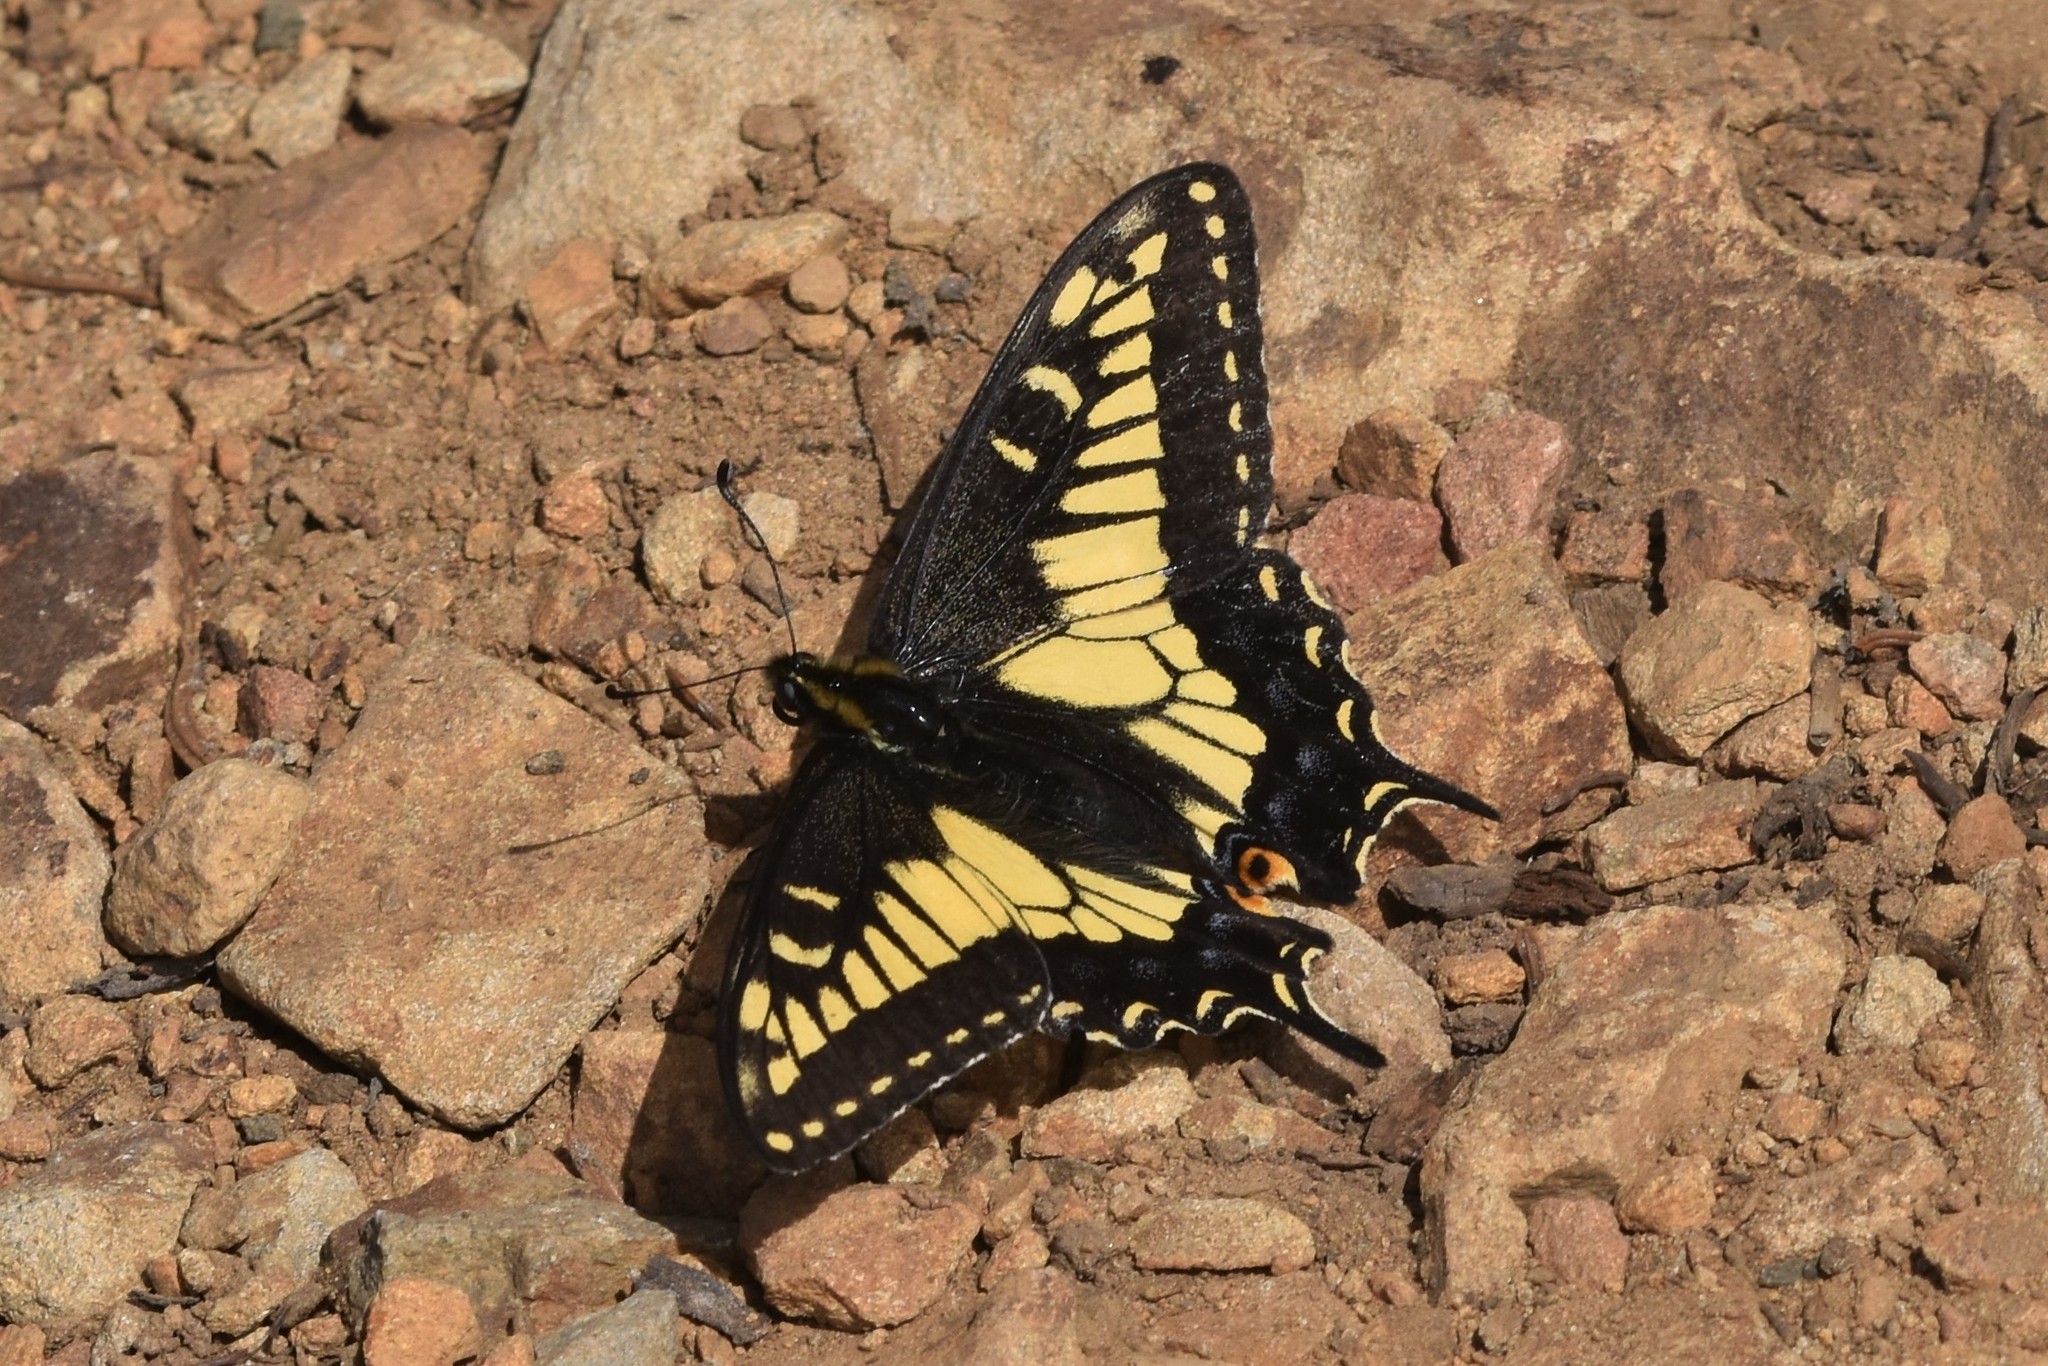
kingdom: Animalia
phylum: Arthropoda
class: Insecta
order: Lepidoptera
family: Papilionidae
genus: Papilio
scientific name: Papilio zelicaon
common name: Anise swallowtail
